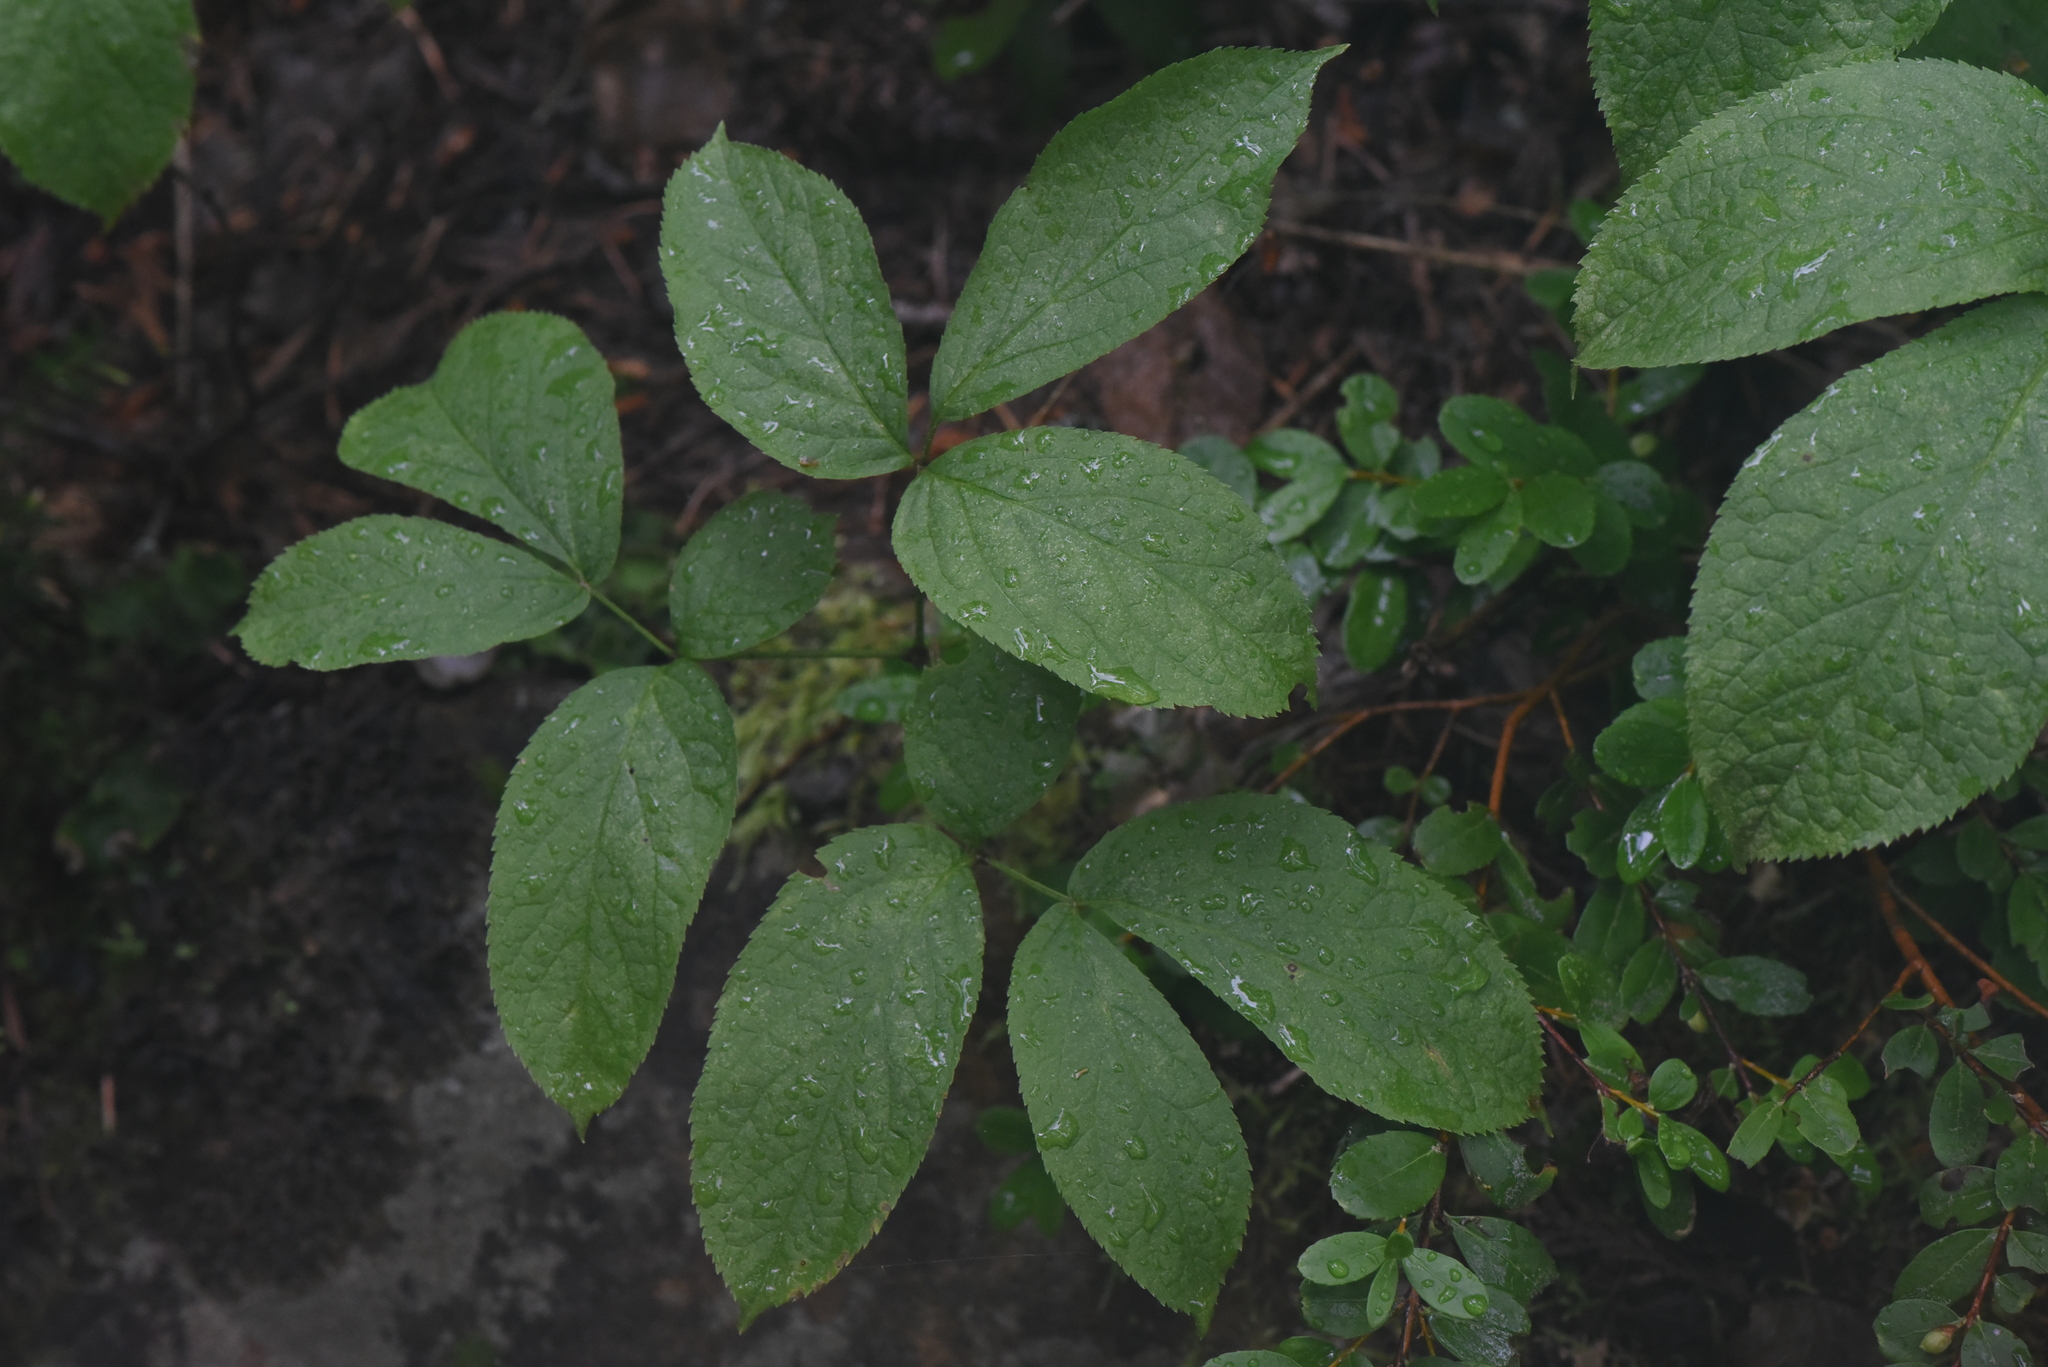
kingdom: Plantae
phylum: Tracheophyta
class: Magnoliopsida
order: Apiales
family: Araliaceae
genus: Aralia
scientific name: Aralia nudicaulis
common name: Wild sarsaparilla
